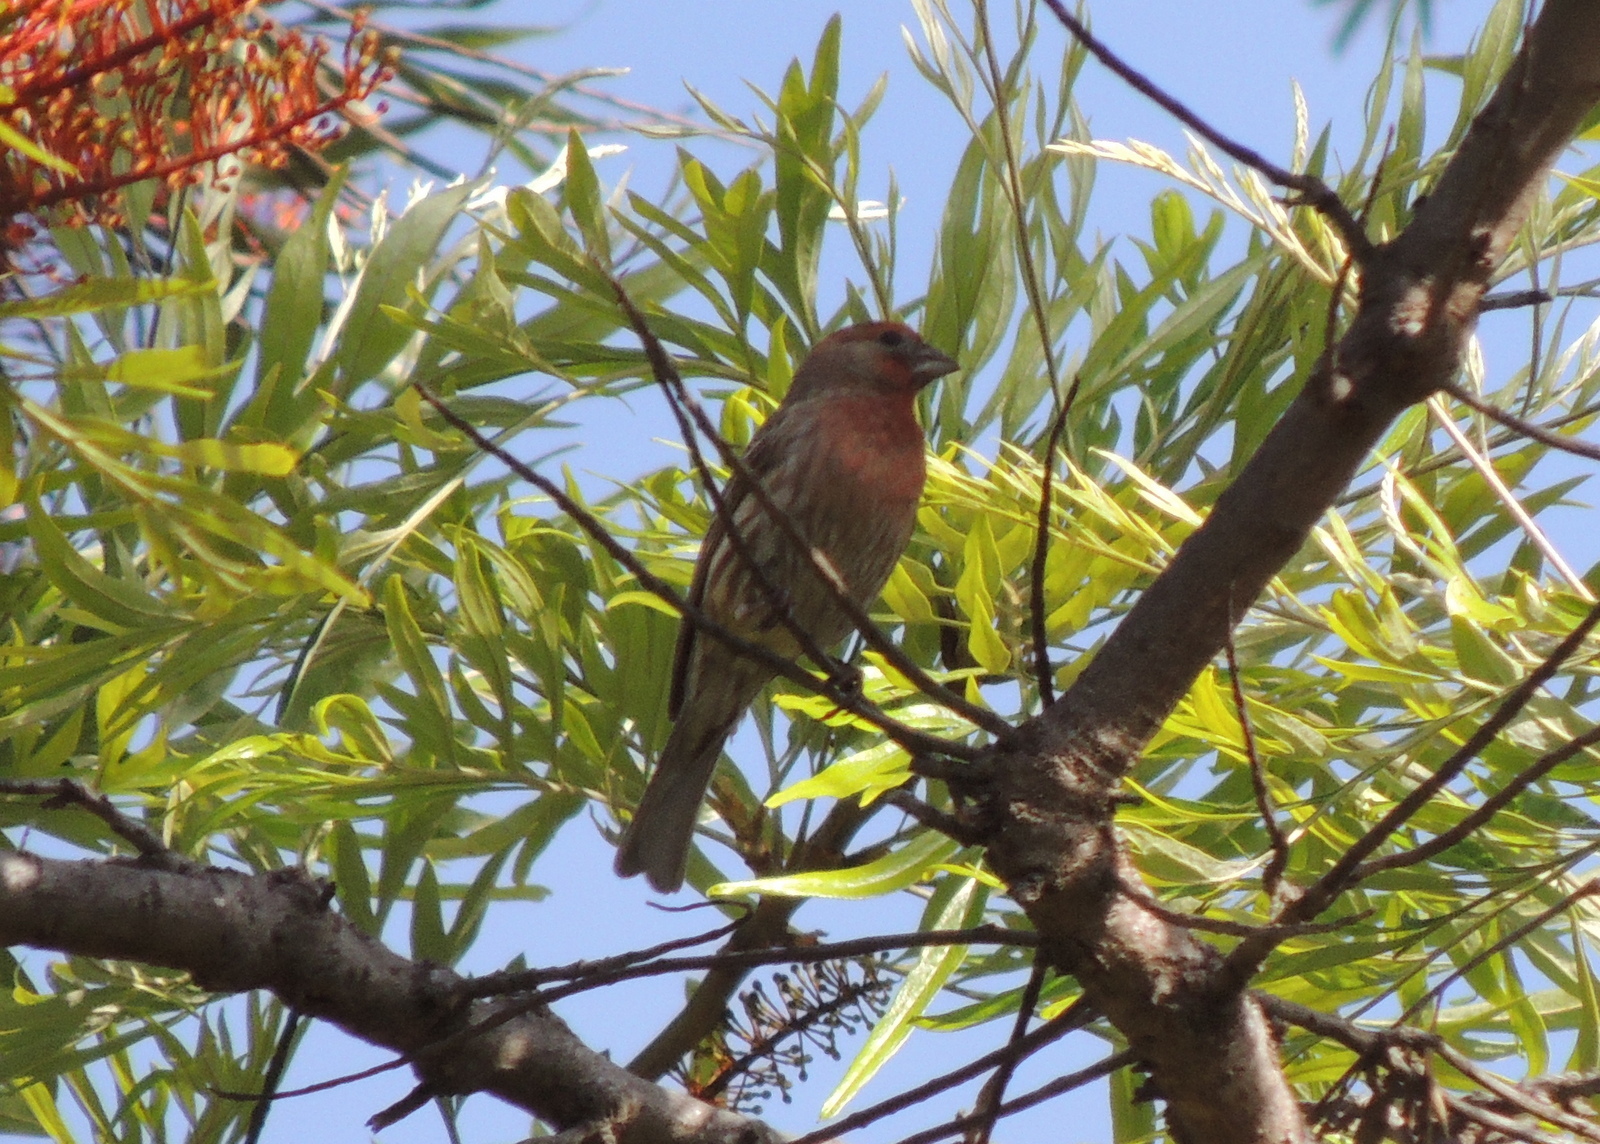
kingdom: Animalia
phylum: Chordata
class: Aves
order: Passeriformes
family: Fringillidae
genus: Haemorhous
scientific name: Haemorhous mexicanus
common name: House finch
